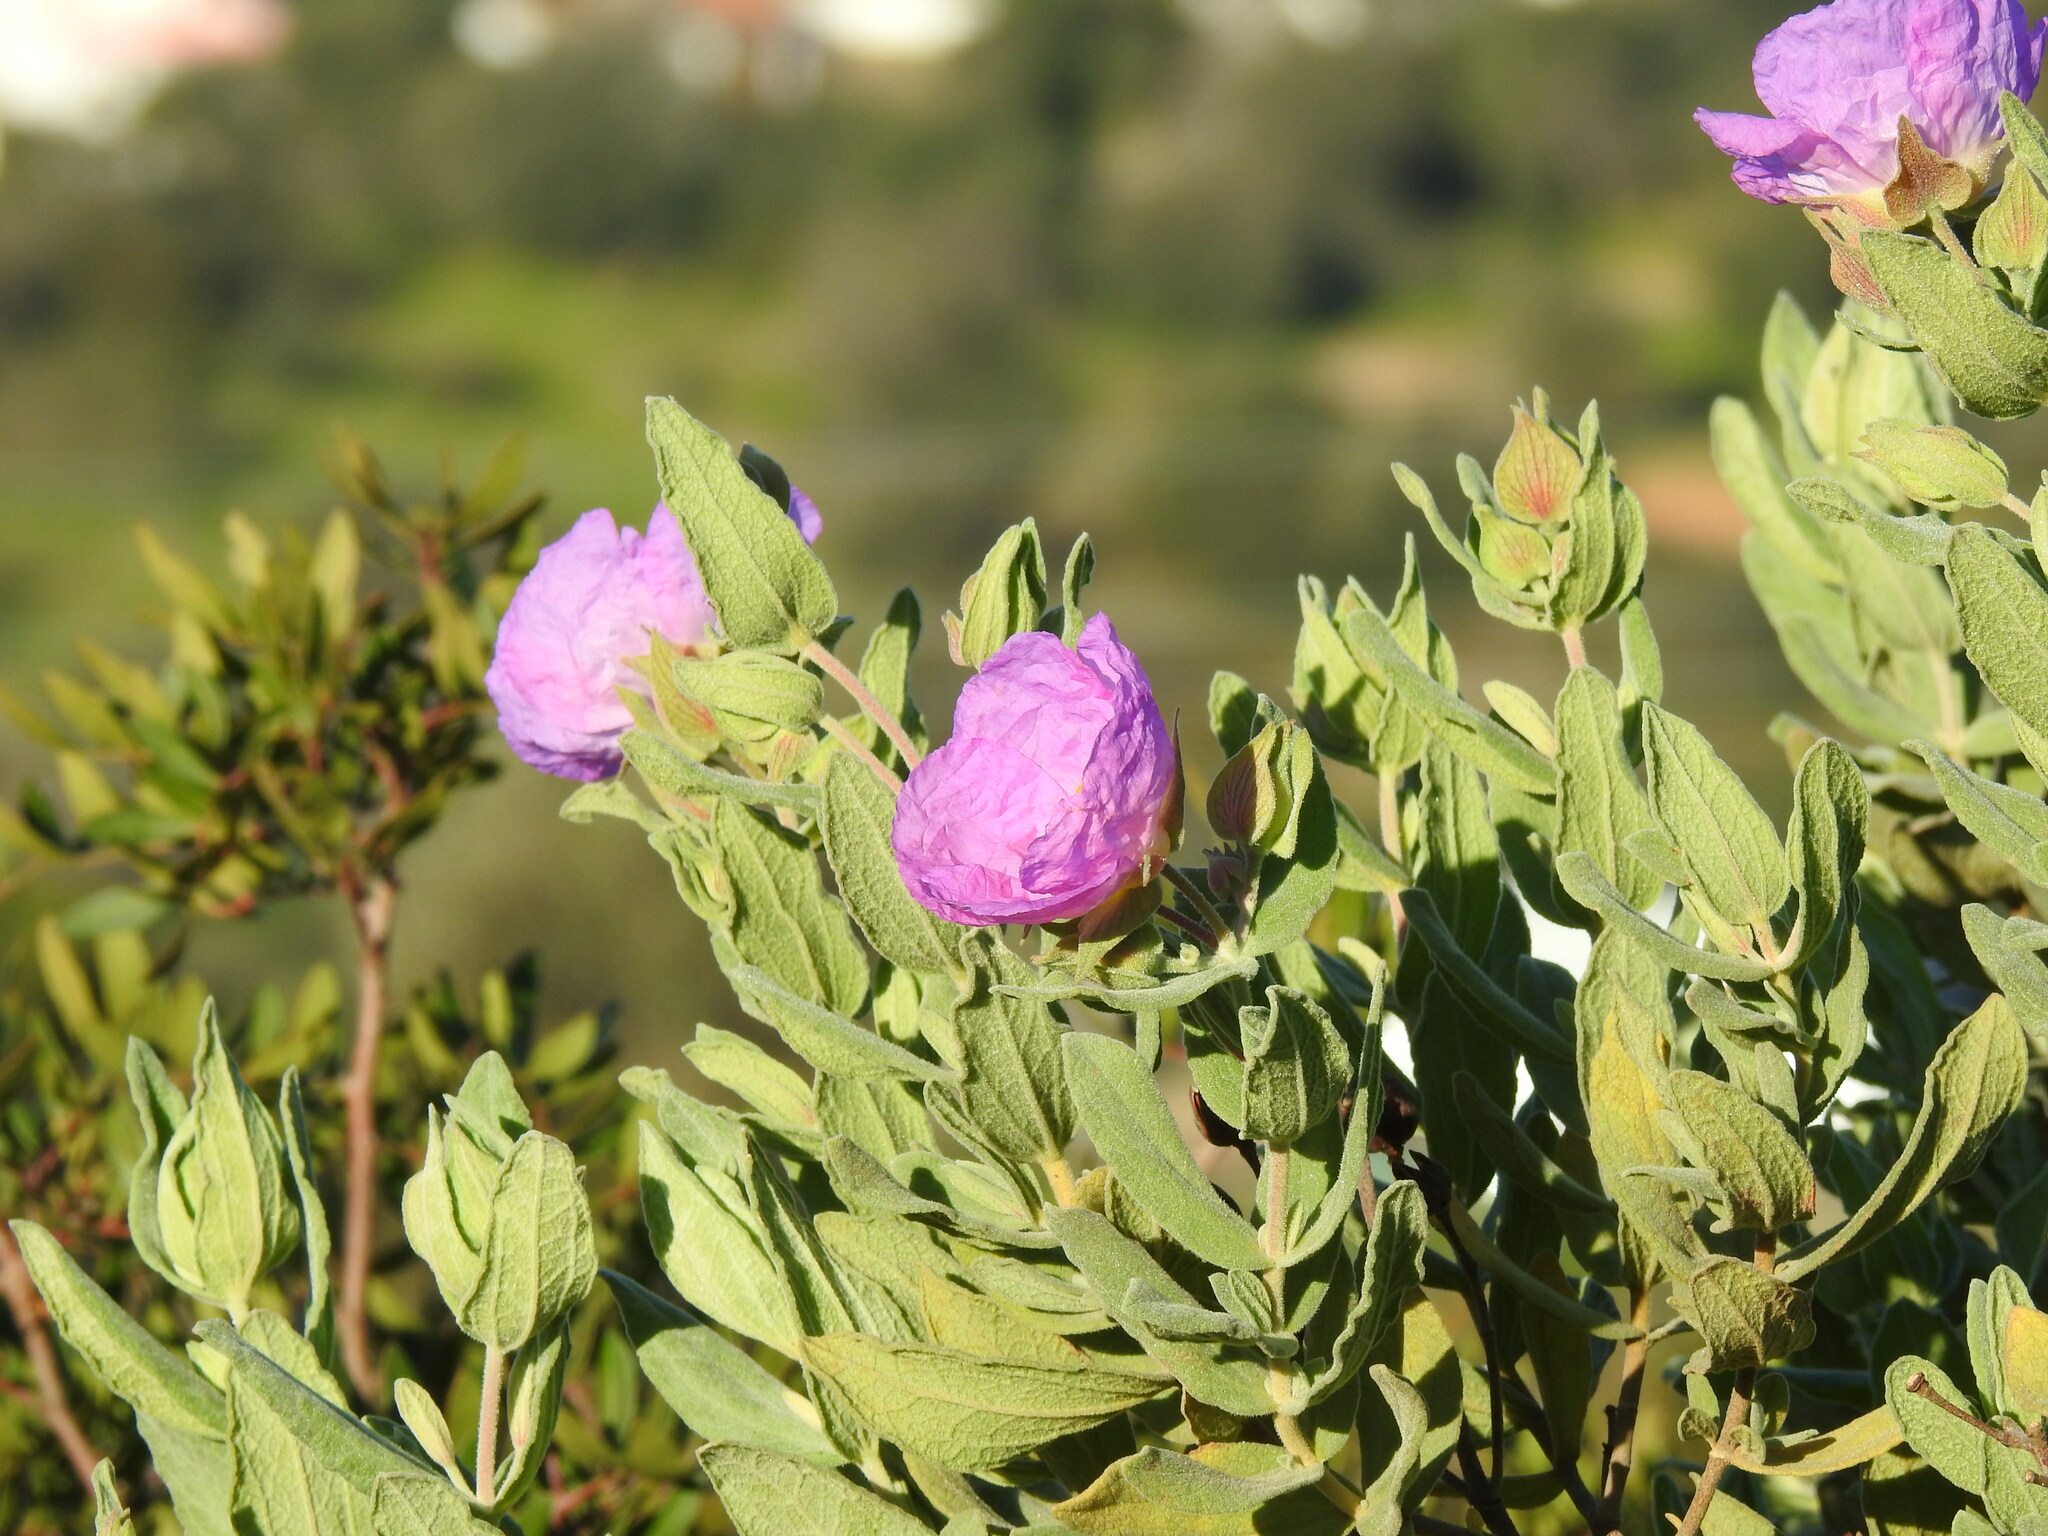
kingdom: Plantae
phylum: Tracheophyta
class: Magnoliopsida
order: Malvales
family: Cistaceae
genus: Cistus
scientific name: Cistus albidus
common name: White-leaf rock-rose
